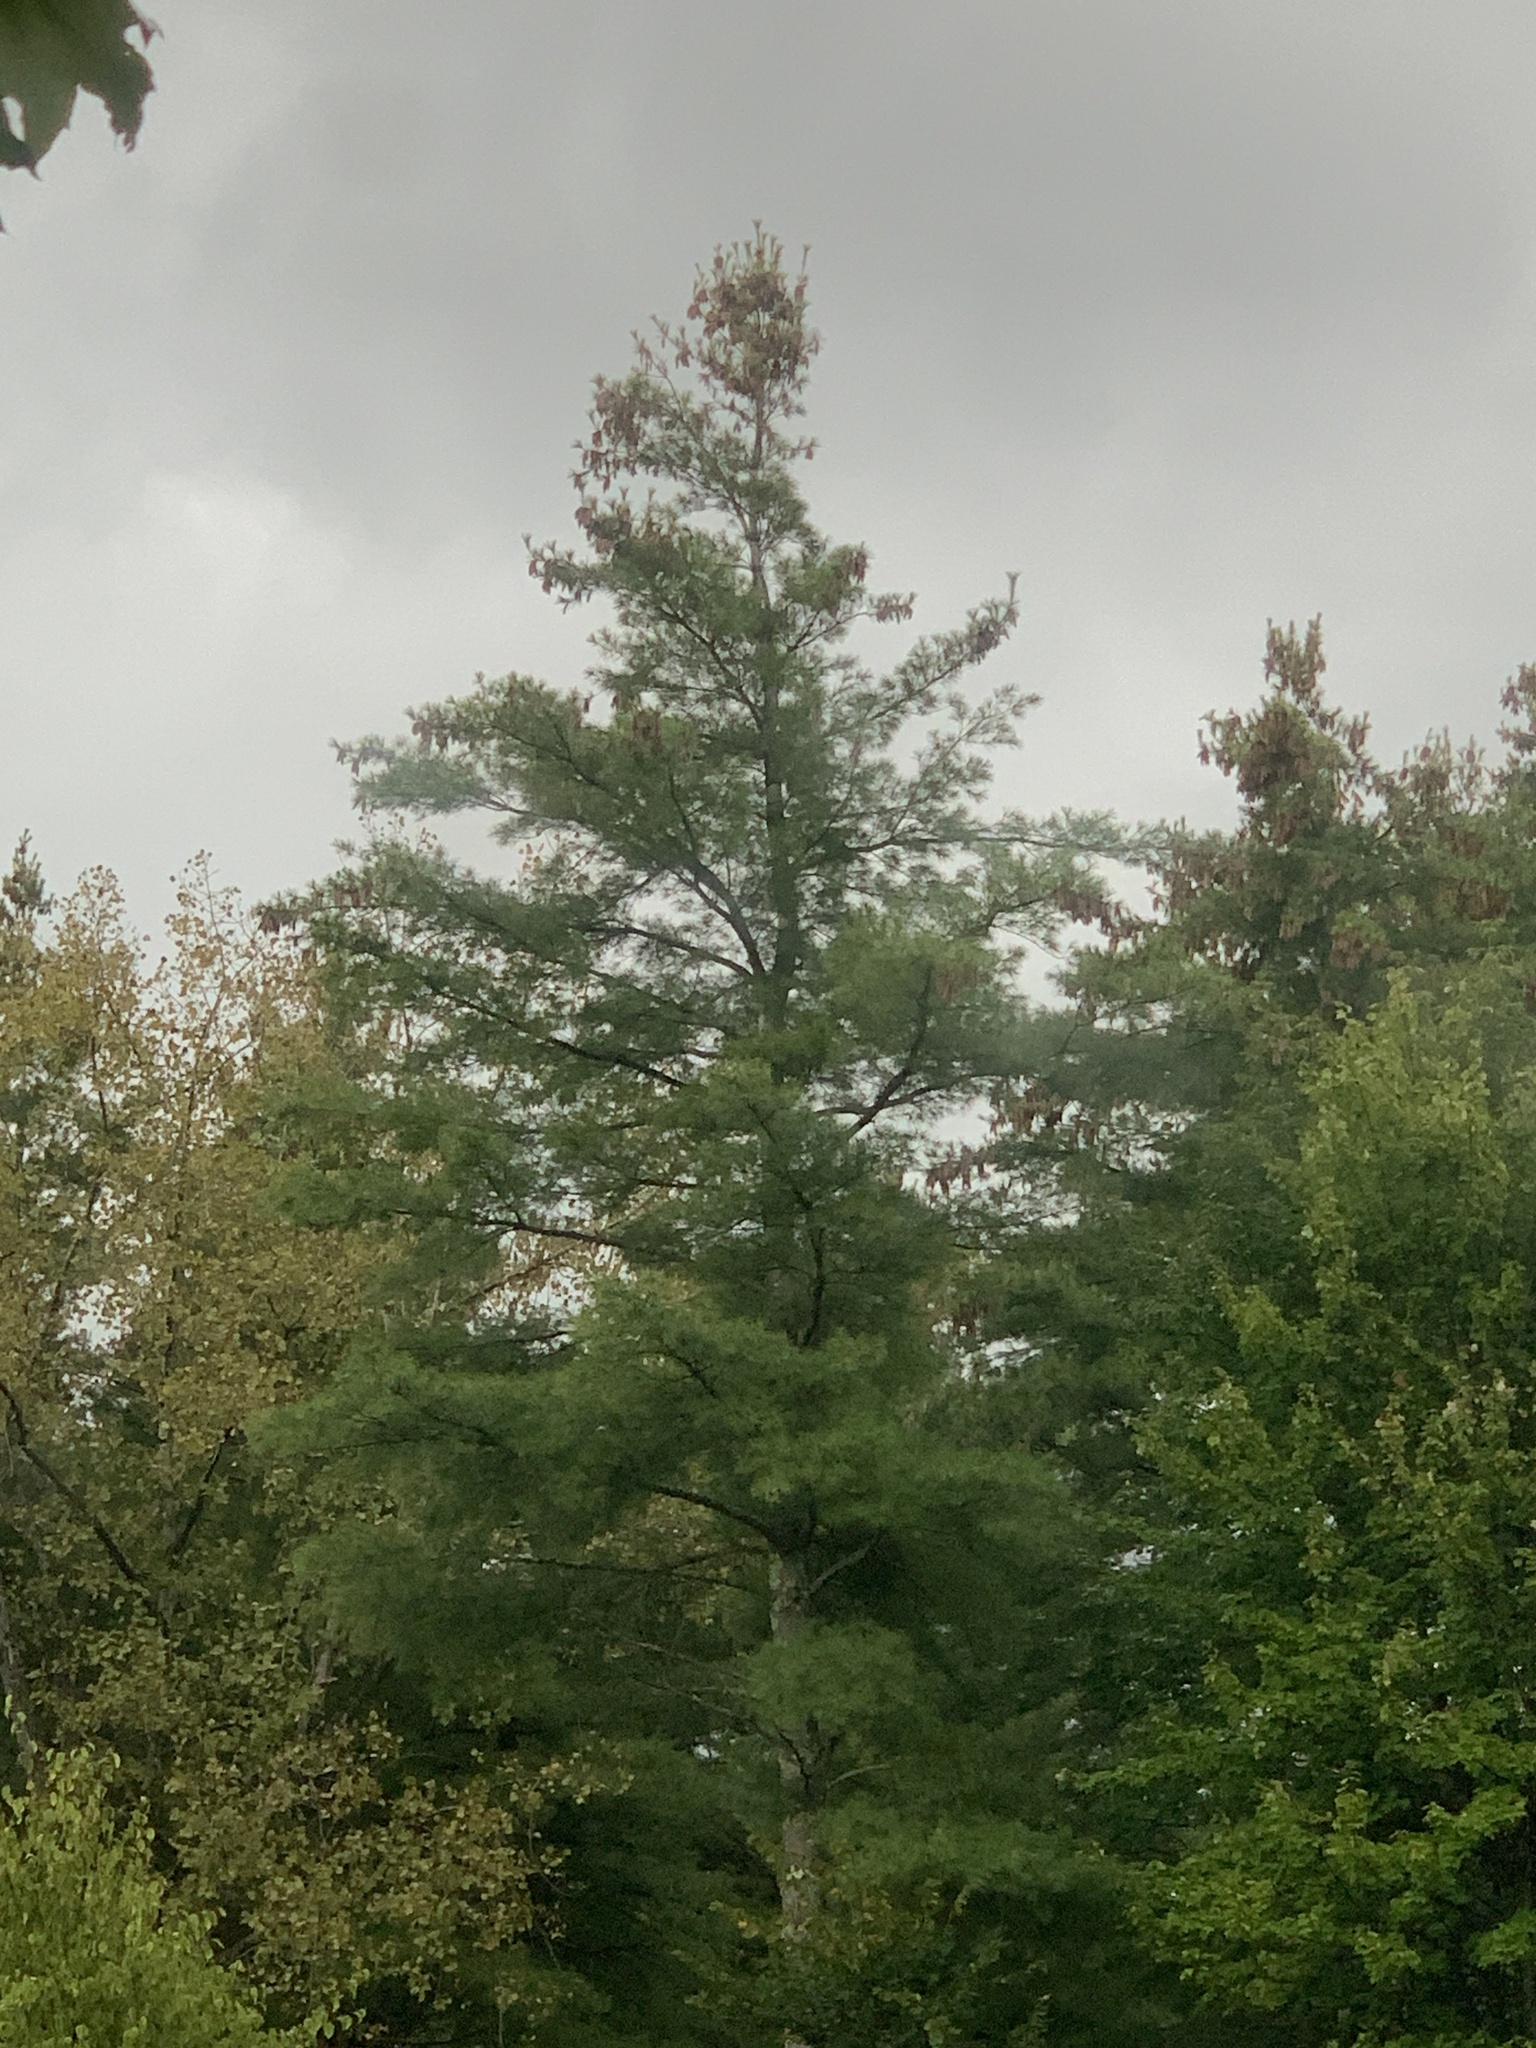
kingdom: Plantae
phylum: Tracheophyta
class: Pinopsida
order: Pinales
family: Pinaceae
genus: Pinus
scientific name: Pinus strobus
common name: Weymouth pine
